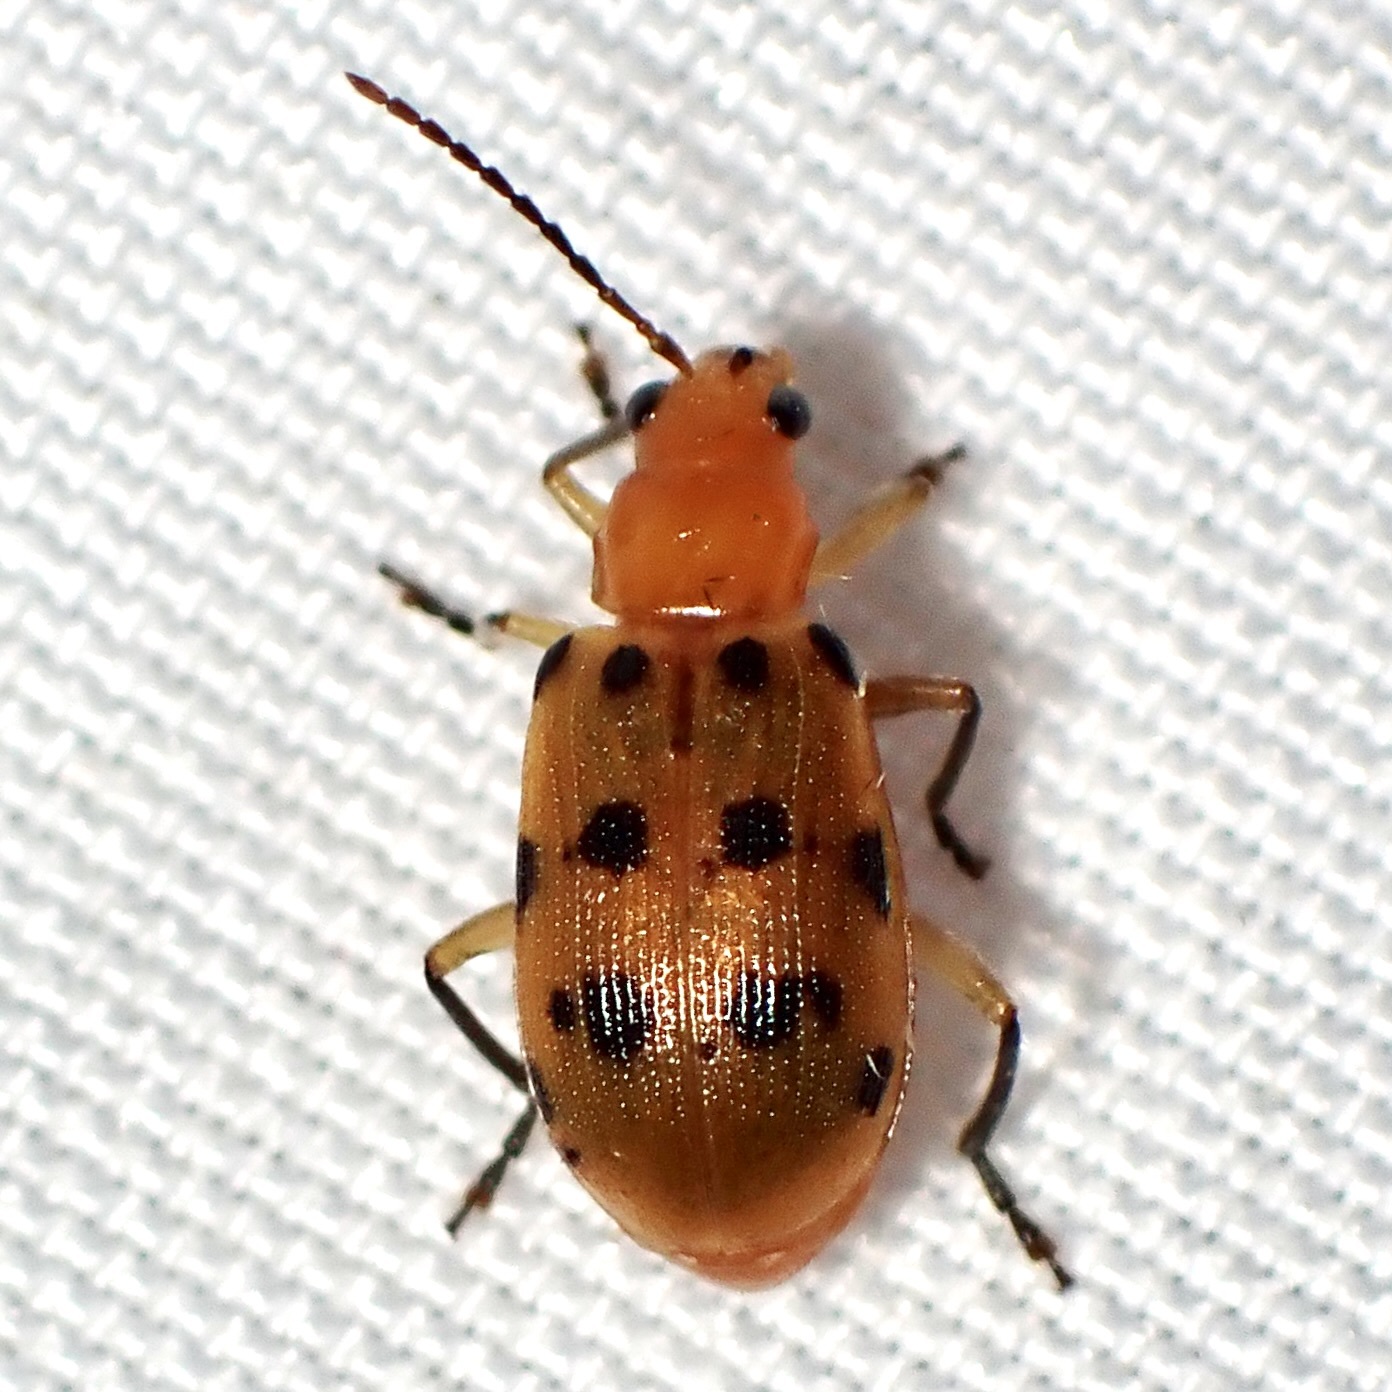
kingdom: Animalia
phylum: Arthropoda
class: Insecta
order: Coleoptera
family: Chrysomelidae
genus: Neobrotica
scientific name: Neobrotica pluristica
